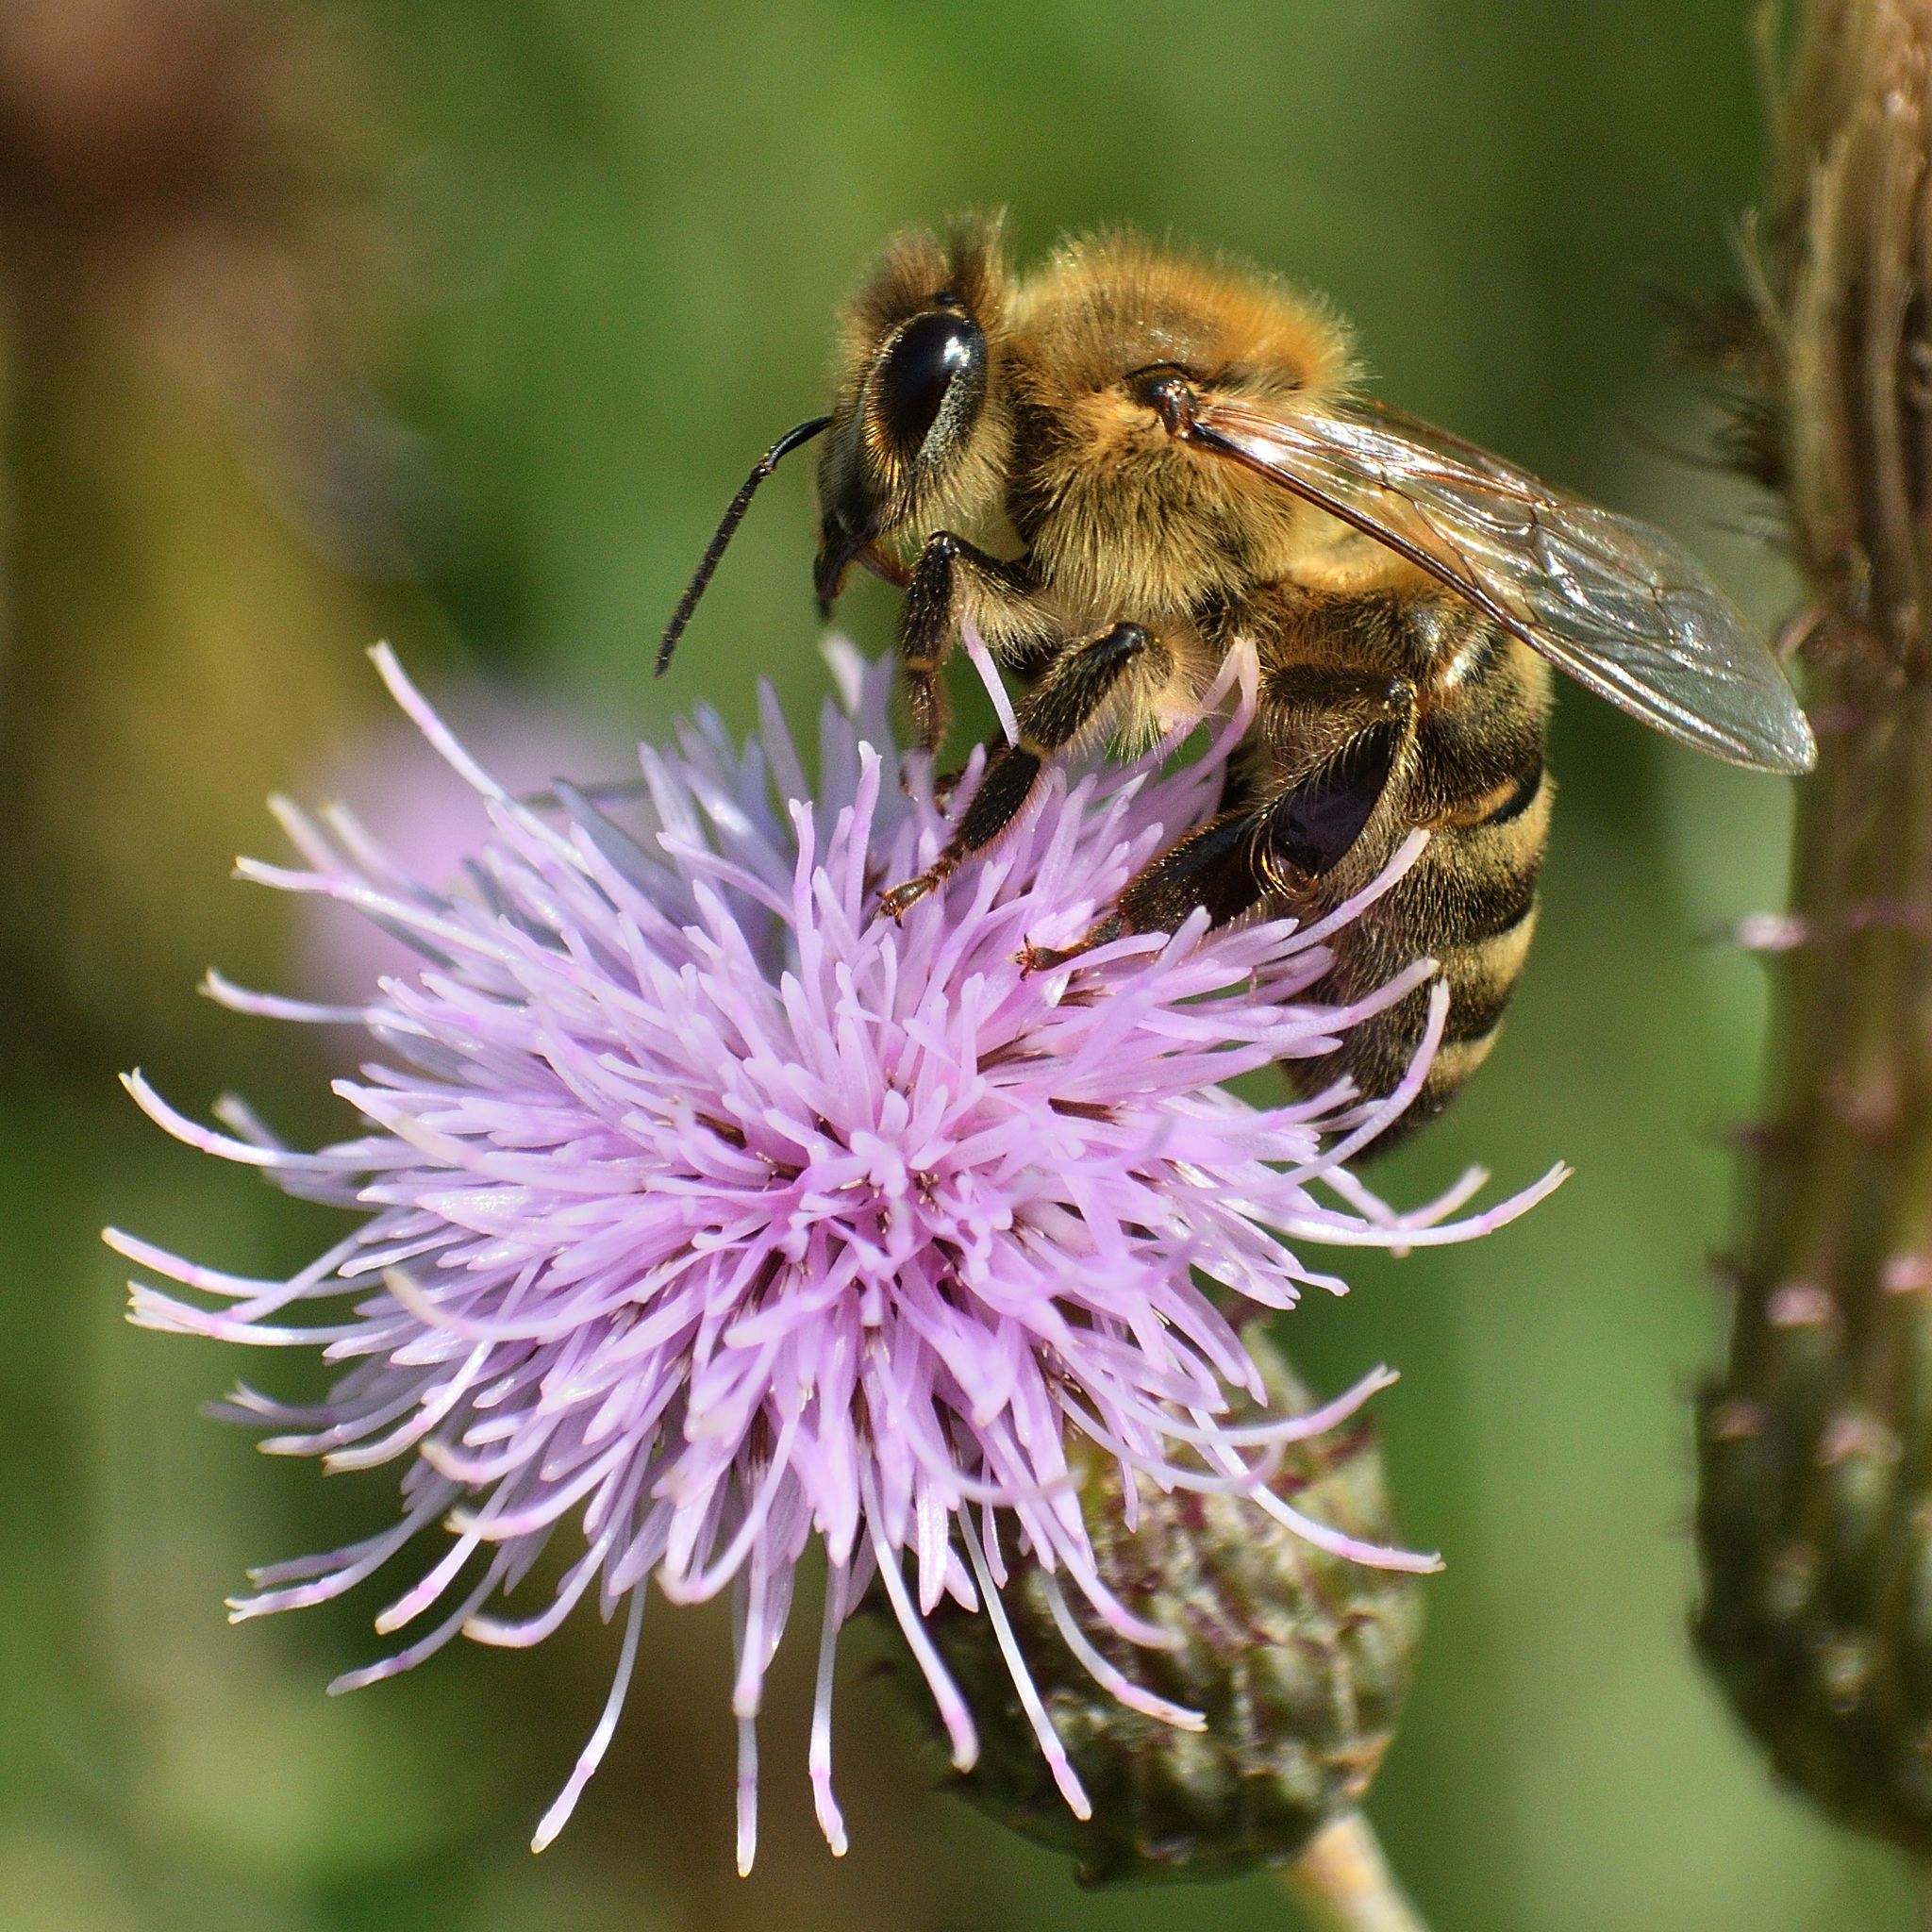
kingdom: Animalia
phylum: Arthropoda
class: Insecta
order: Hymenoptera
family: Apidae
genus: Apis
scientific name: Apis mellifera
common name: Honey bee
